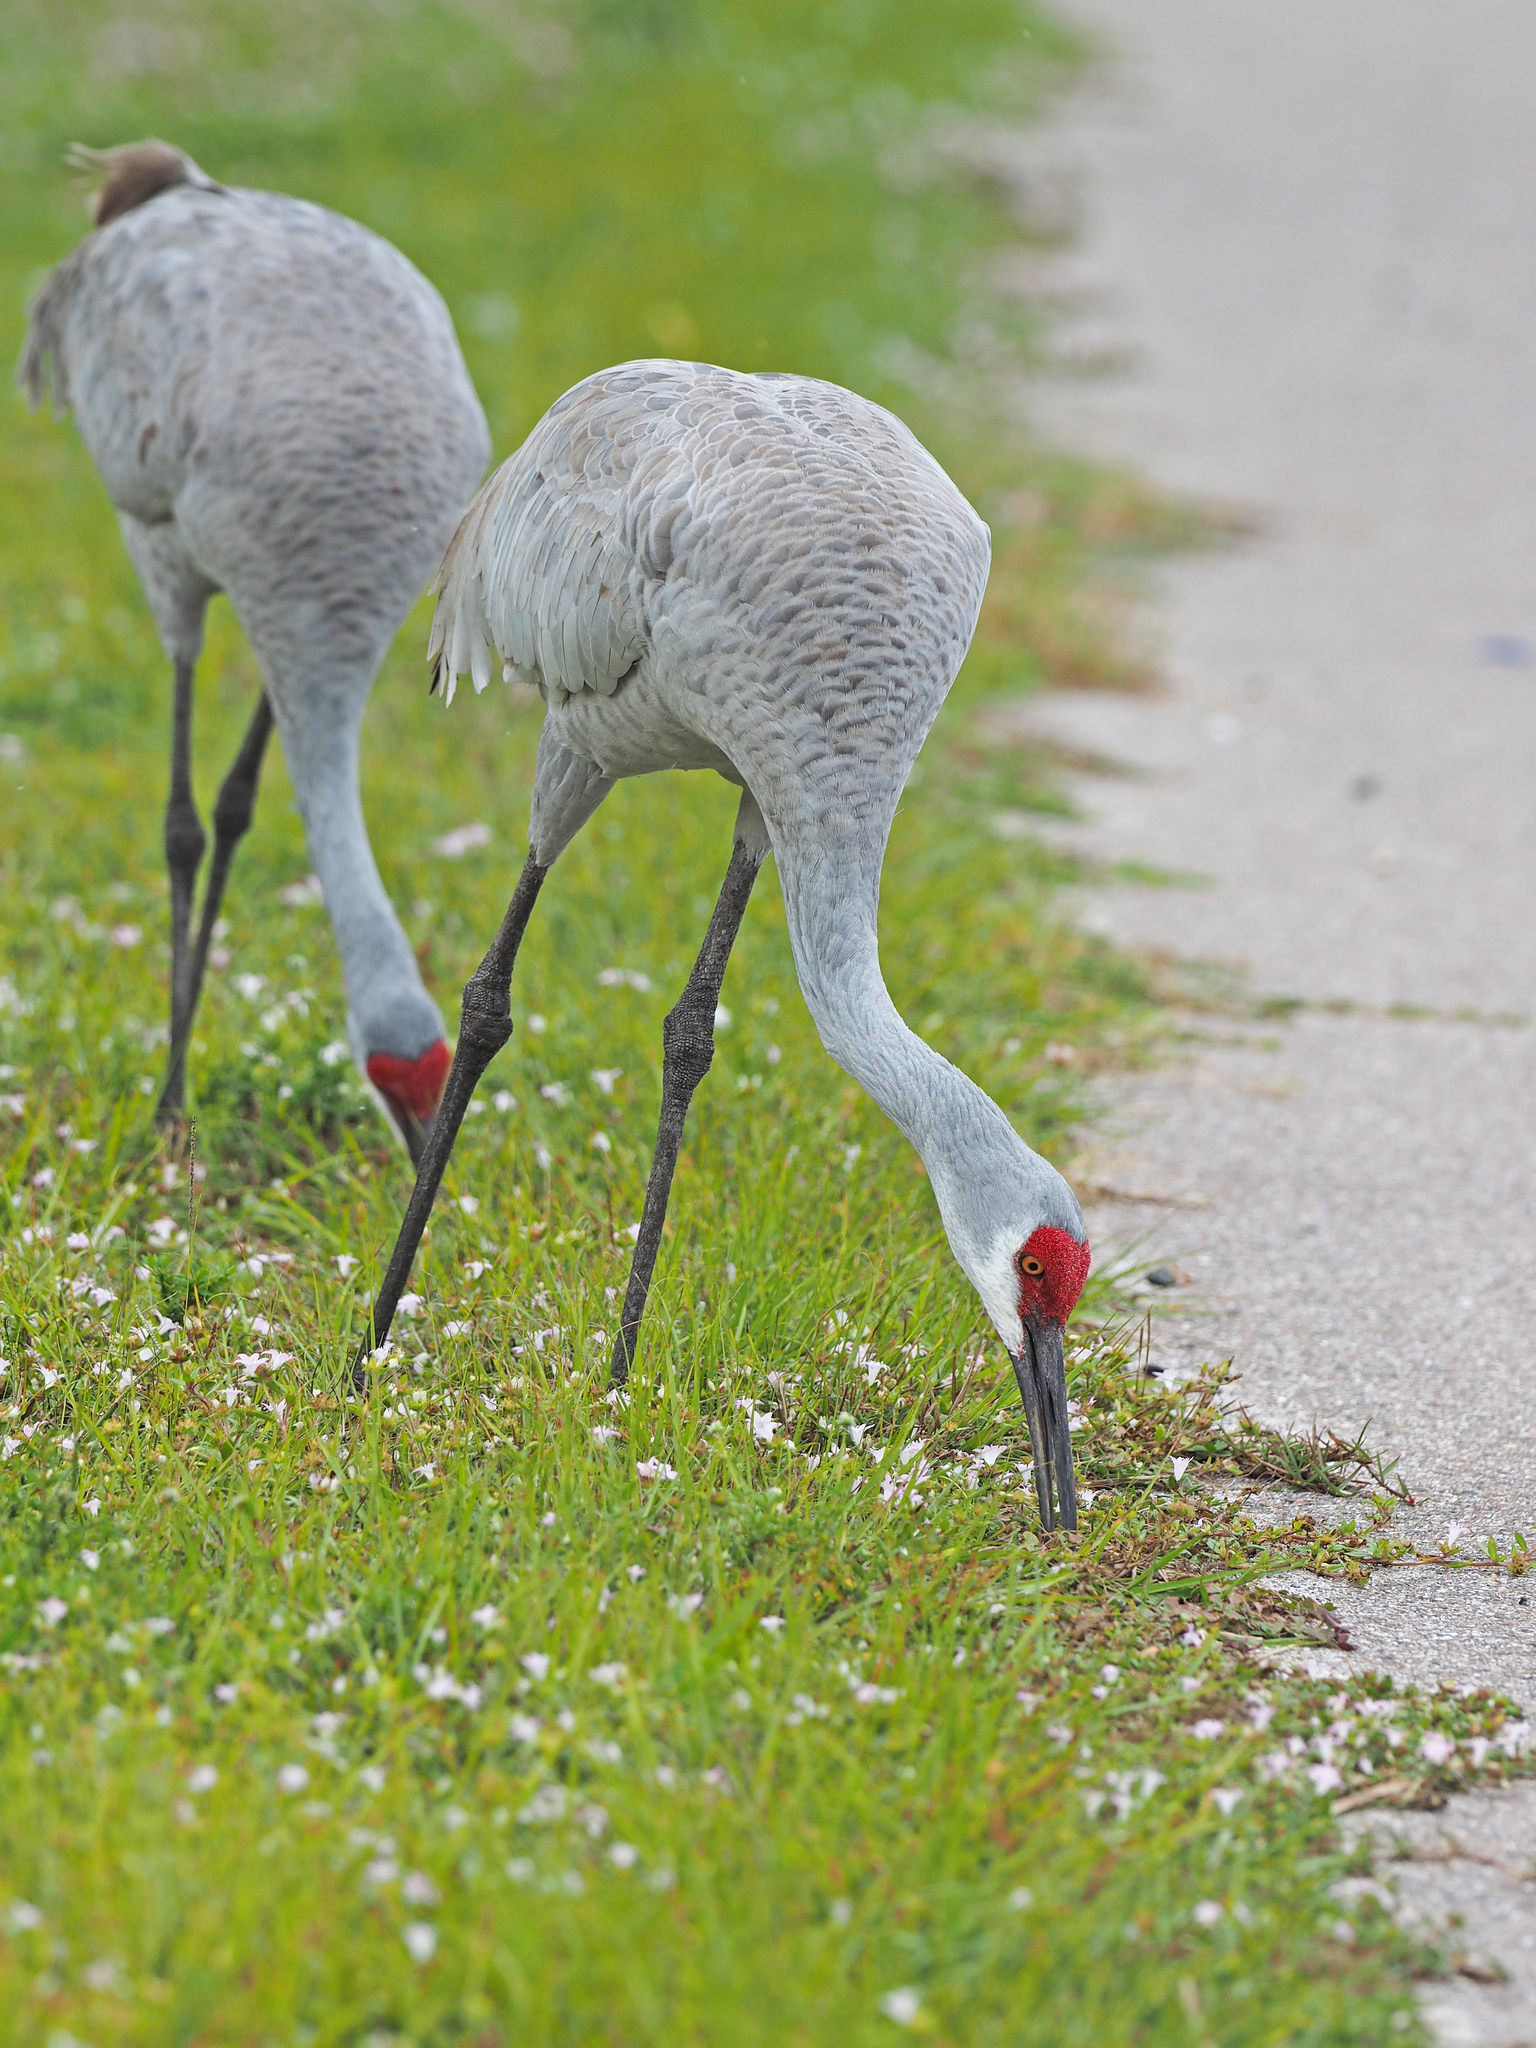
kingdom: Animalia
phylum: Chordata
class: Aves
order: Gruiformes
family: Gruidae
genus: Grus
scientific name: Grus canadensis
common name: Sandhill crane
